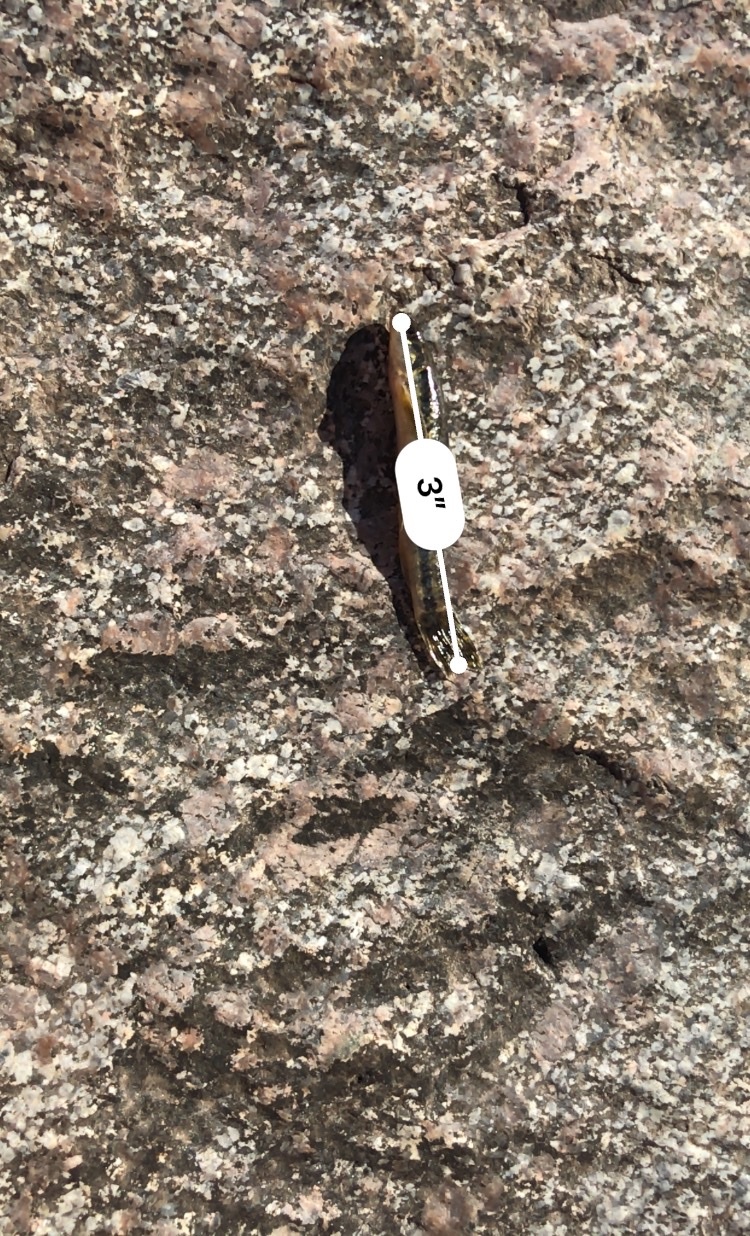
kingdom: Animalia
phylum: Chordata
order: Characiformes
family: Crenuchidae
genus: Characidium
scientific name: Characidium pterostictum
